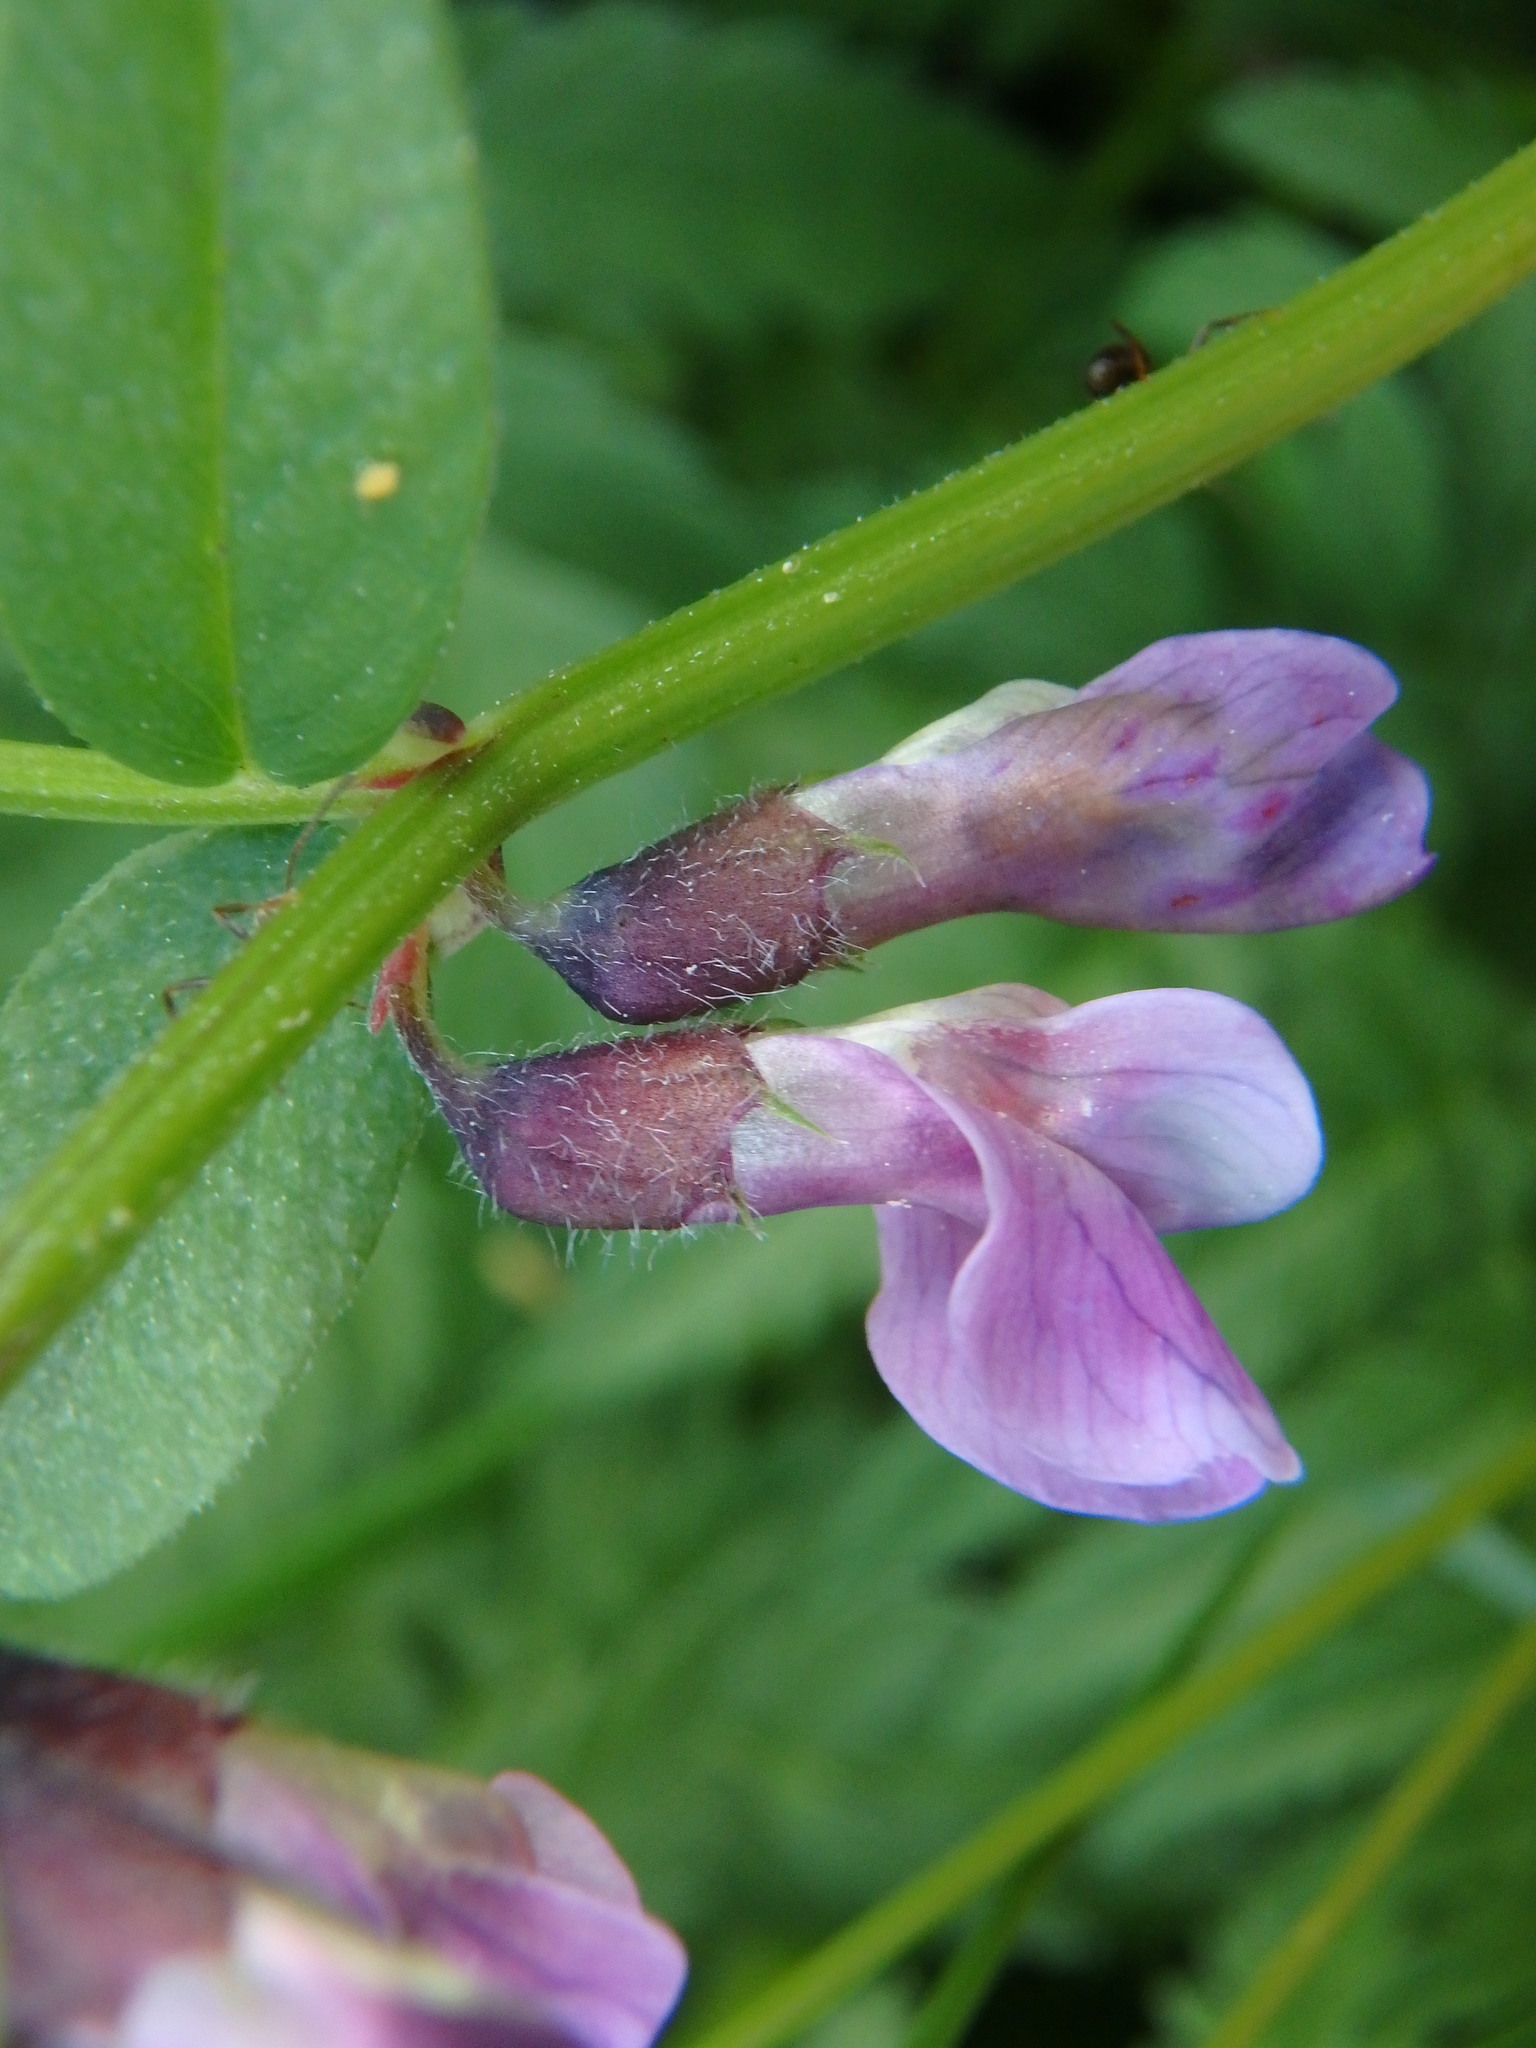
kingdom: Plantae
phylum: Tracheophyta
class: Magnoliopsida
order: Fabales
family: Fabaceae
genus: Vicia
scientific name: Vicia sepium
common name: Bush vetch
